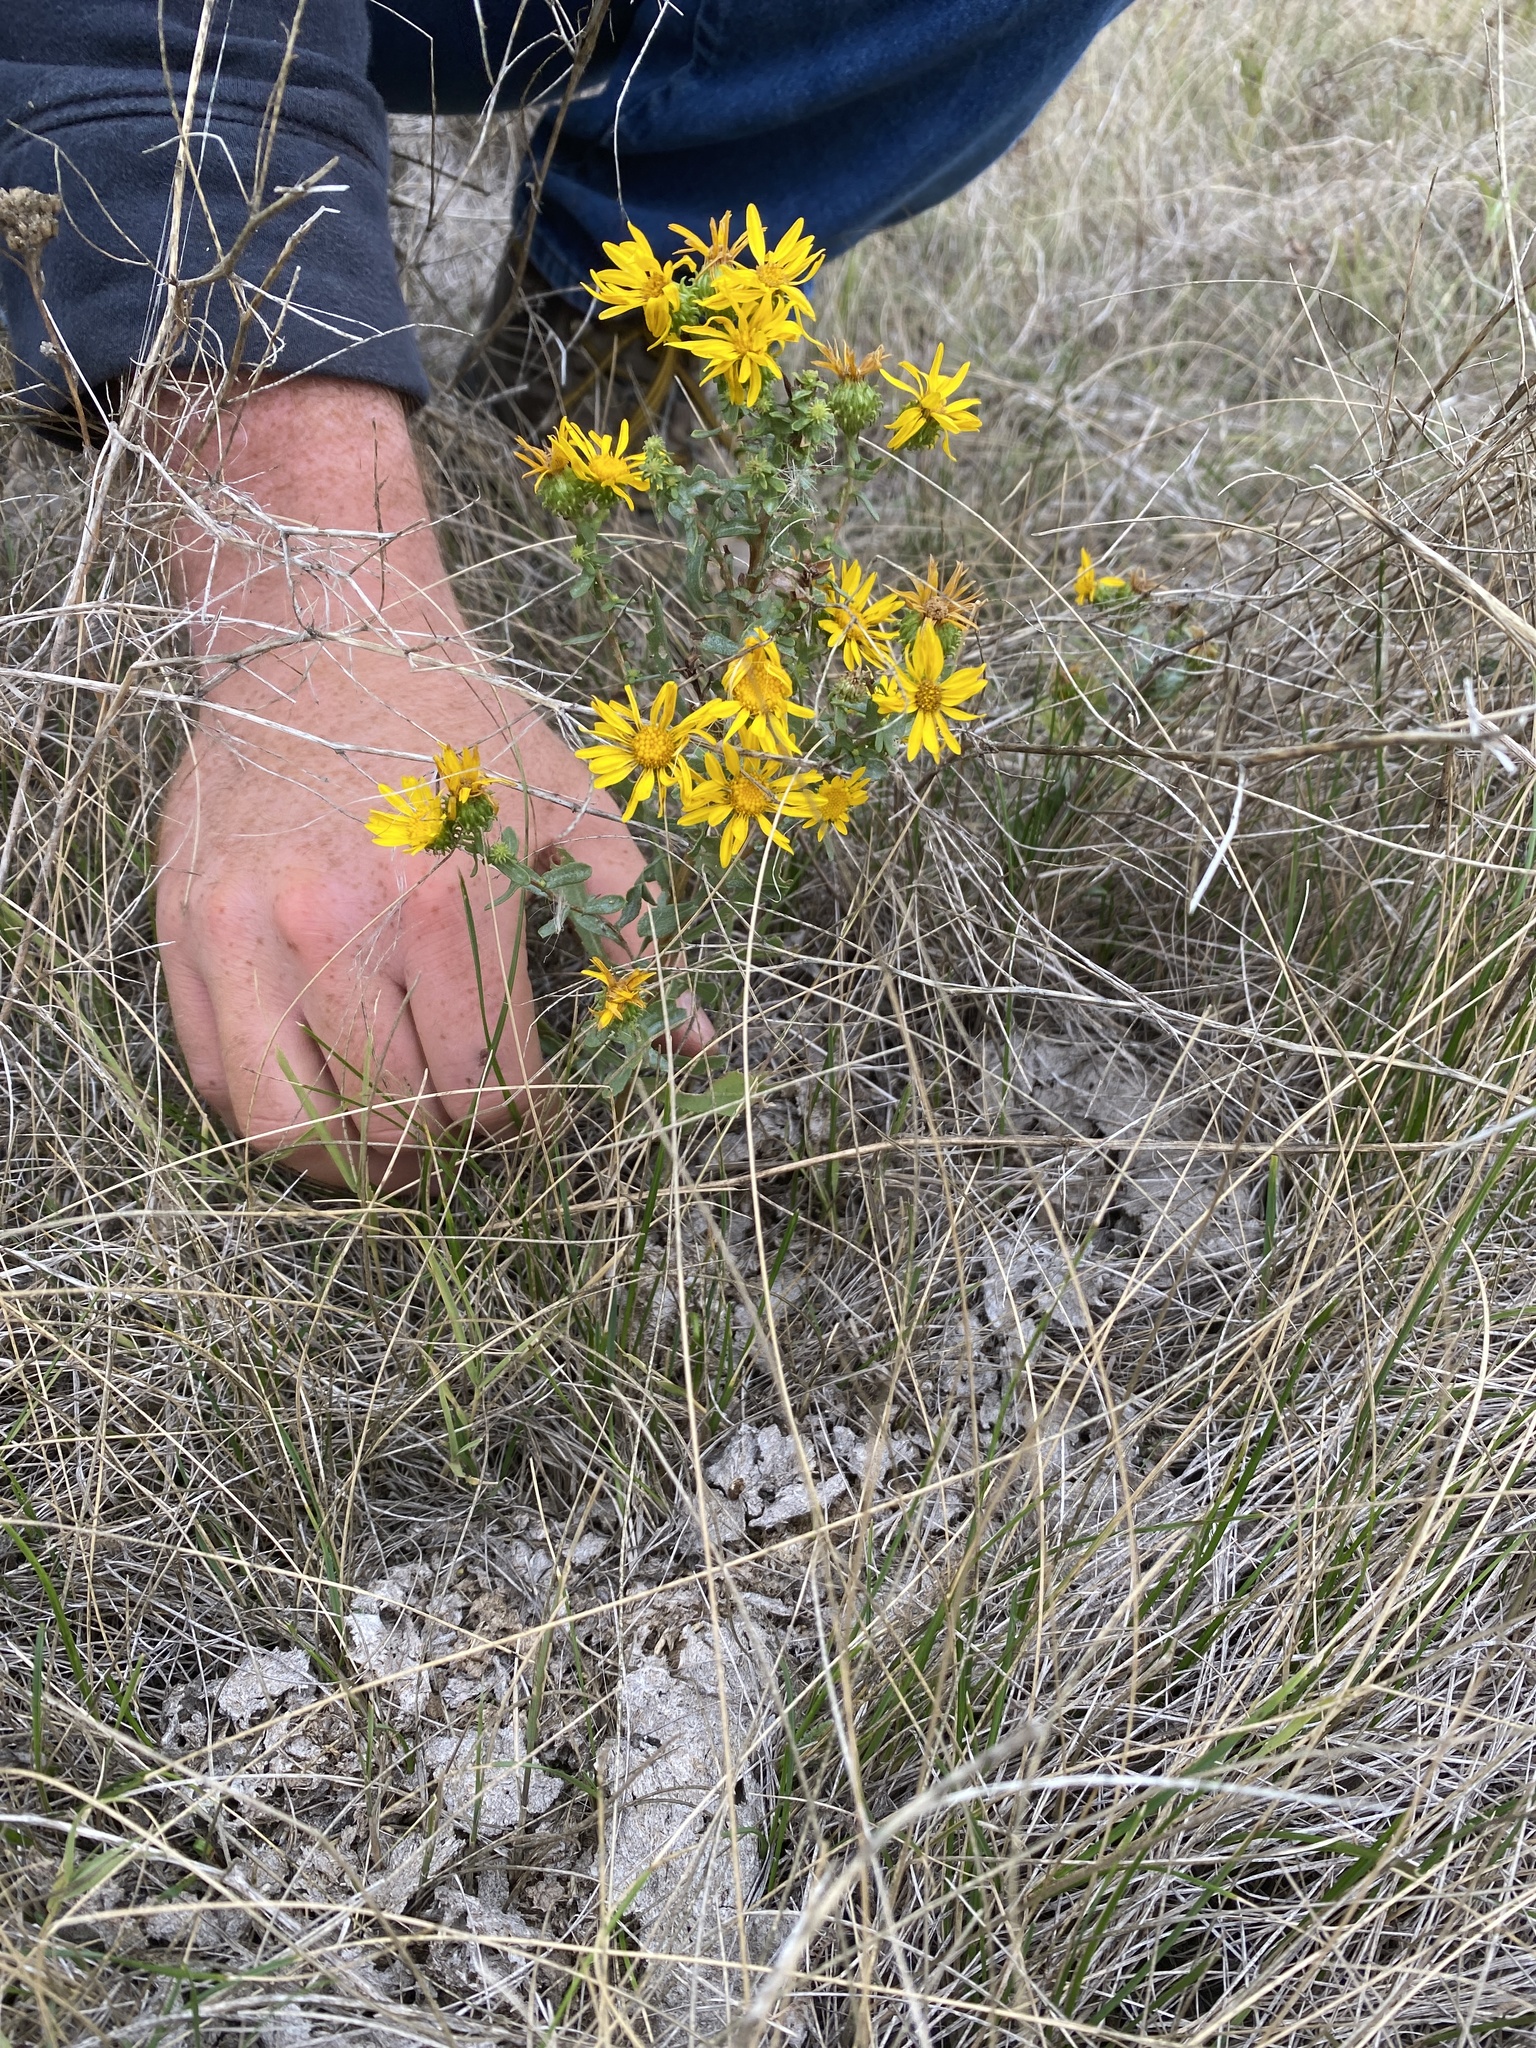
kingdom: Plantae
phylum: Tracheophyta
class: Magnoliopsida
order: Asterales
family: Asteraceae
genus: Grindelia
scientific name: Grindelia squarrosa
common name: Curly-cup gumweed
